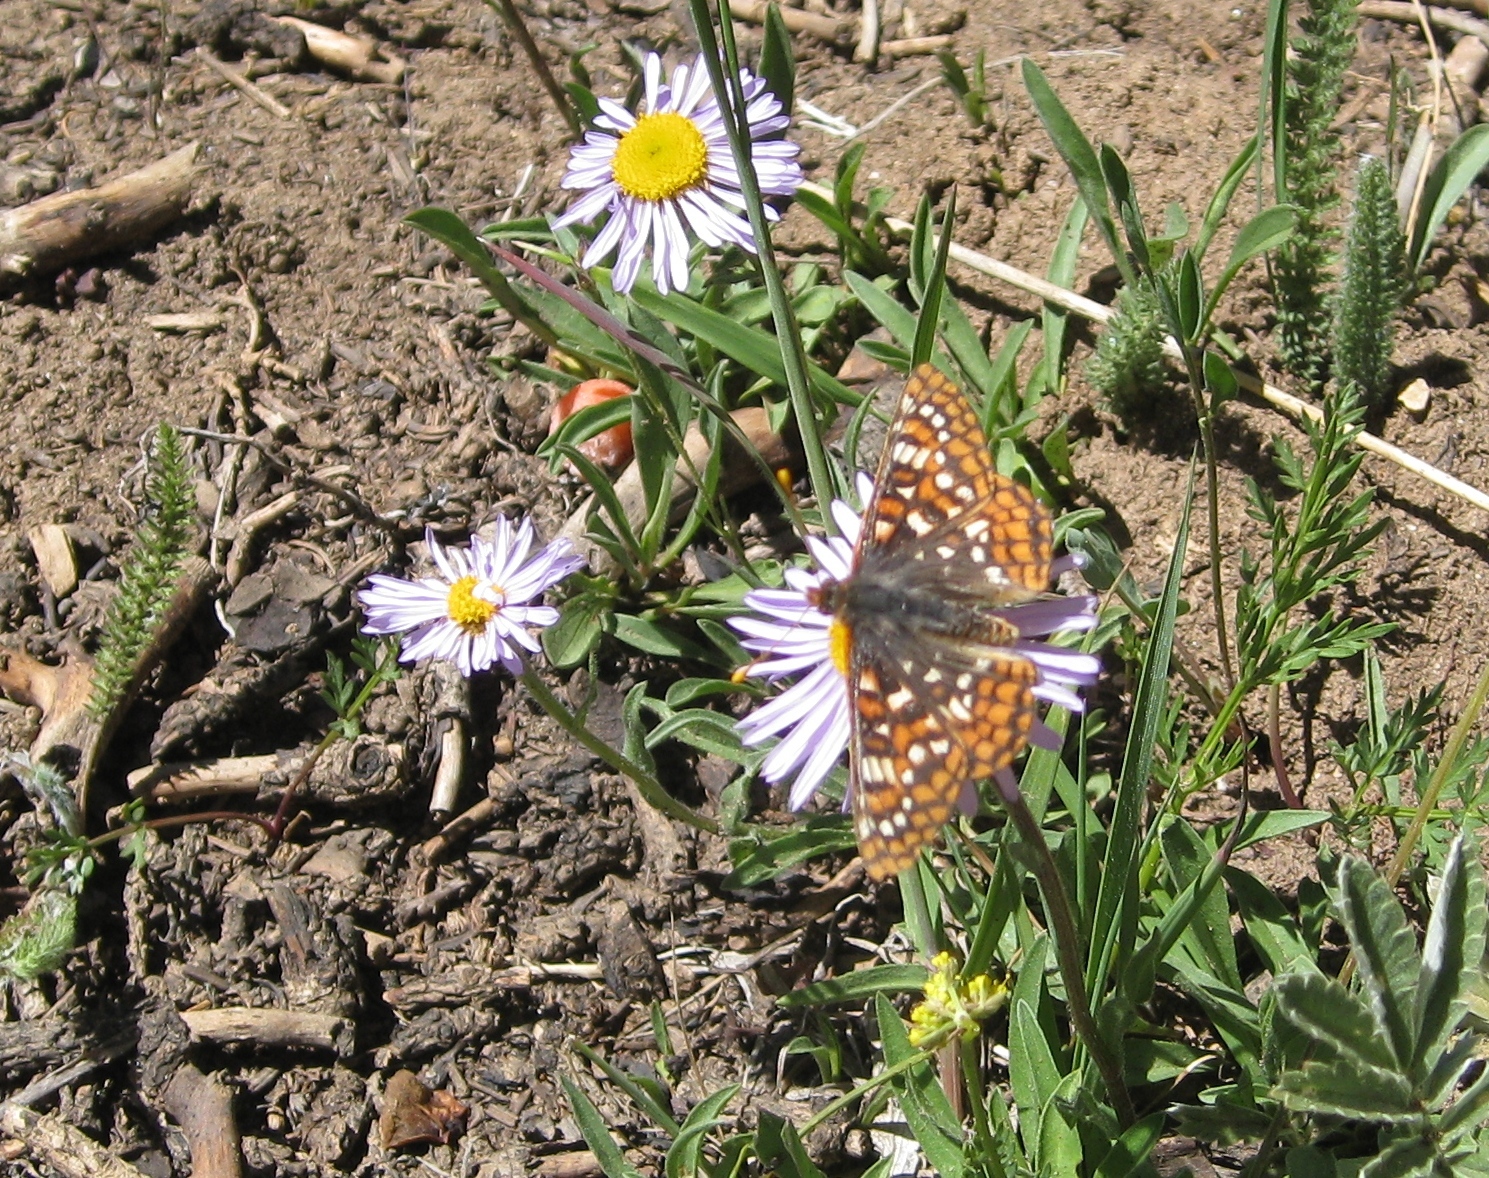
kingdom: Animalia
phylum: Arthropoda
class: Insecta
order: Lepidoptera
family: Nymphalidae
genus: Occidryas
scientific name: Occidryas anicia
